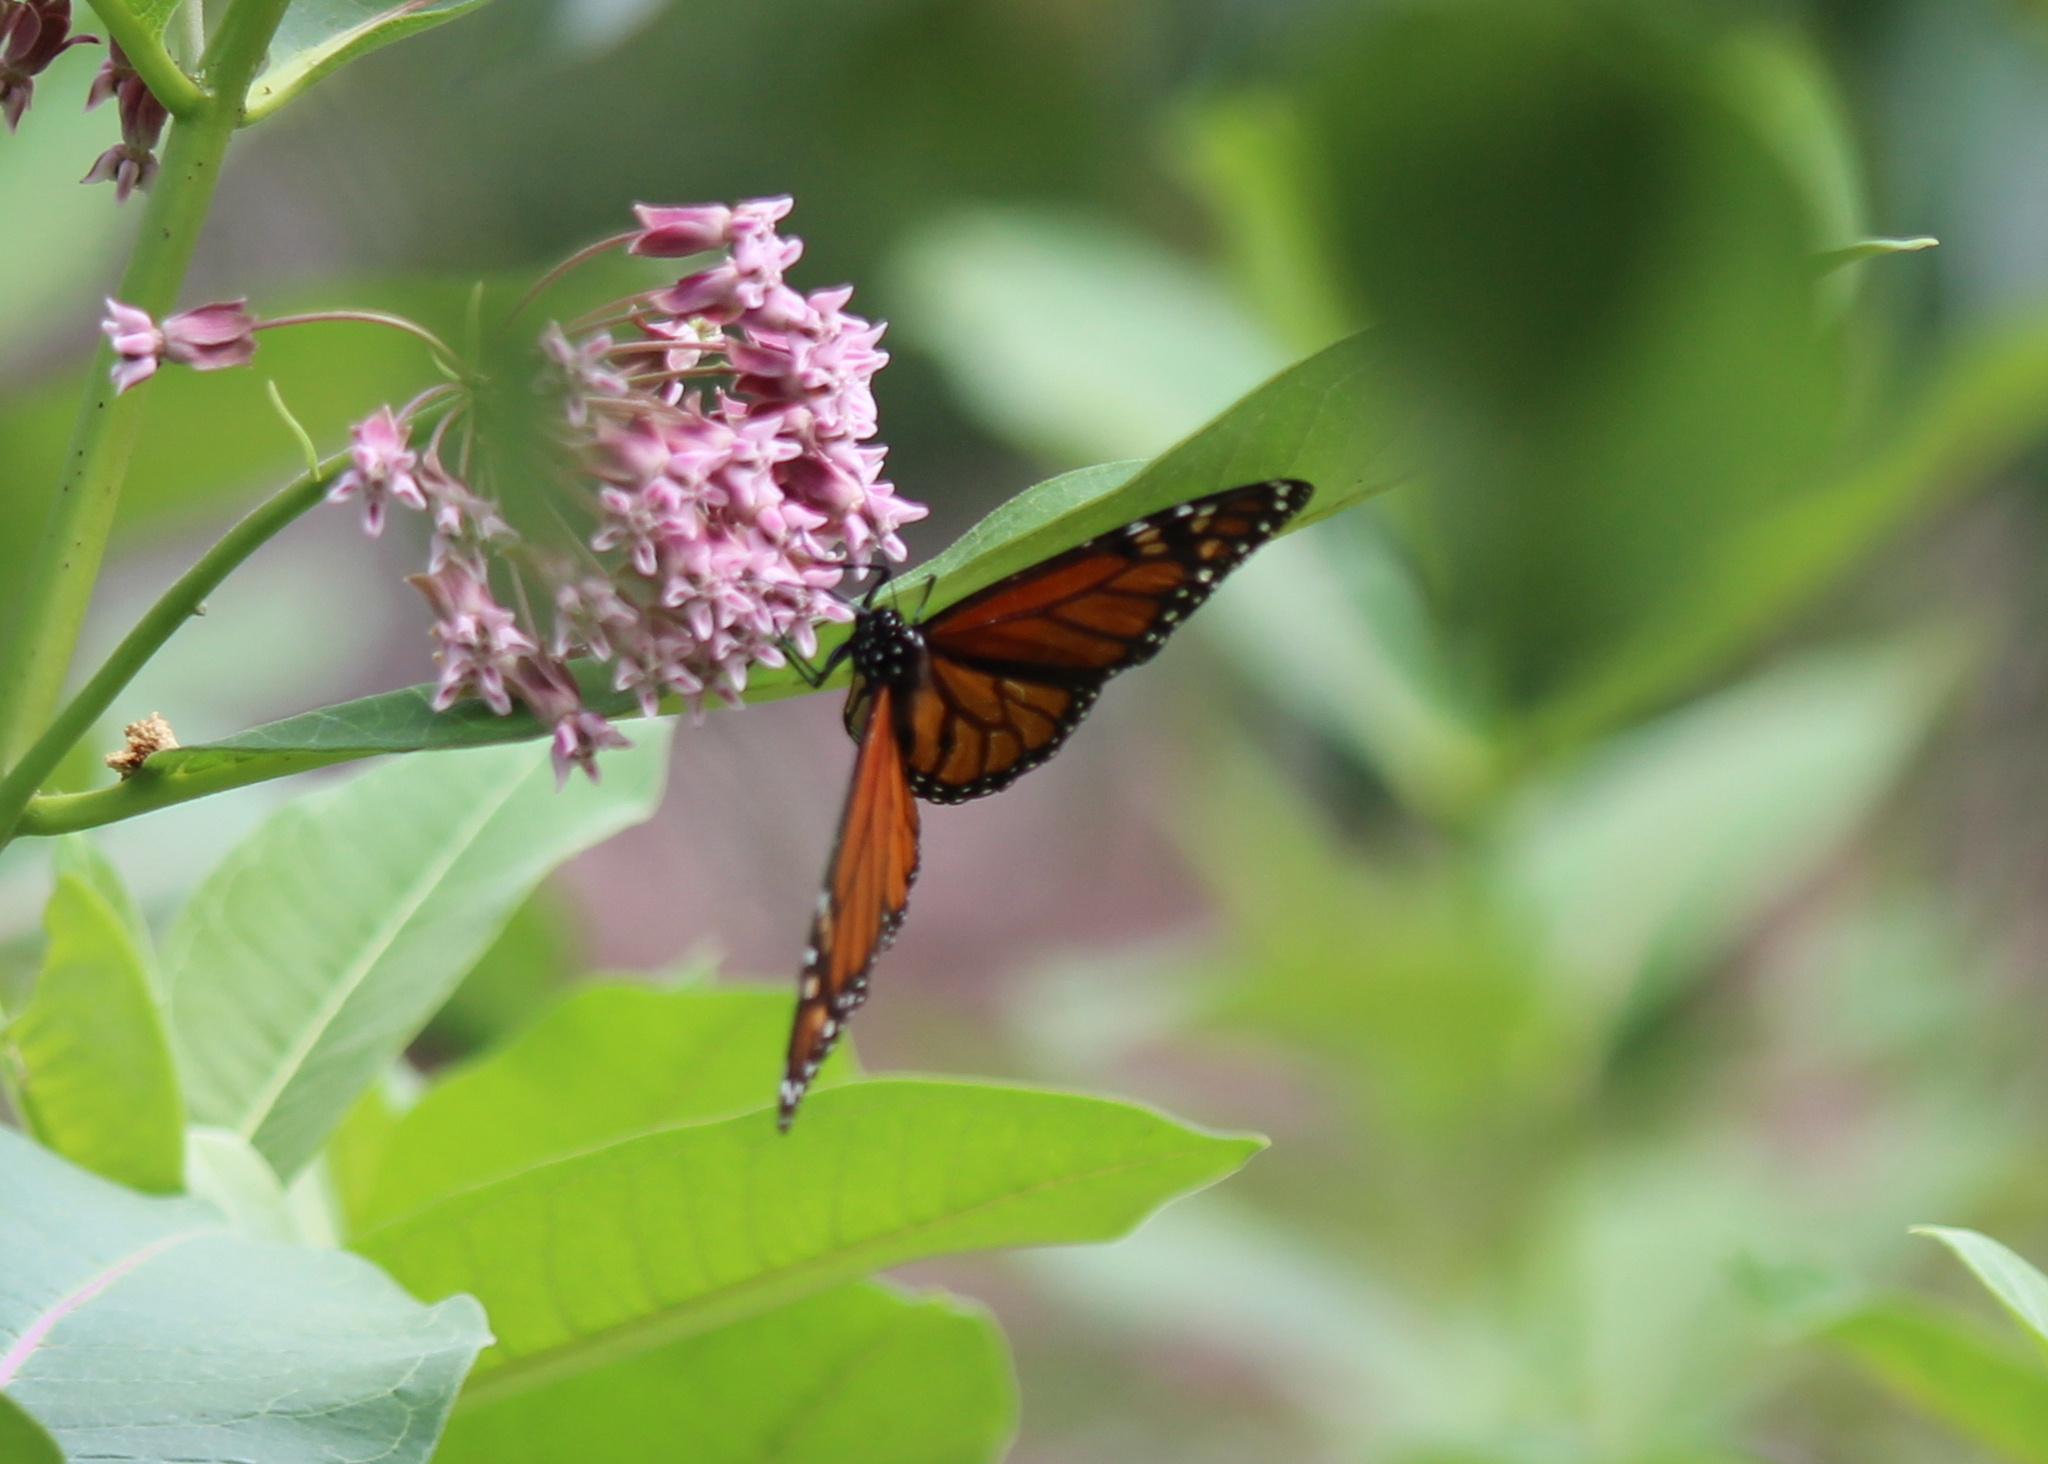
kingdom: Animalia
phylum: Arthropoda
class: Insecta
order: Lepidoptera
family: Nymphalidae
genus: Danaus
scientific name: Danaus plexippus
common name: Monarch
